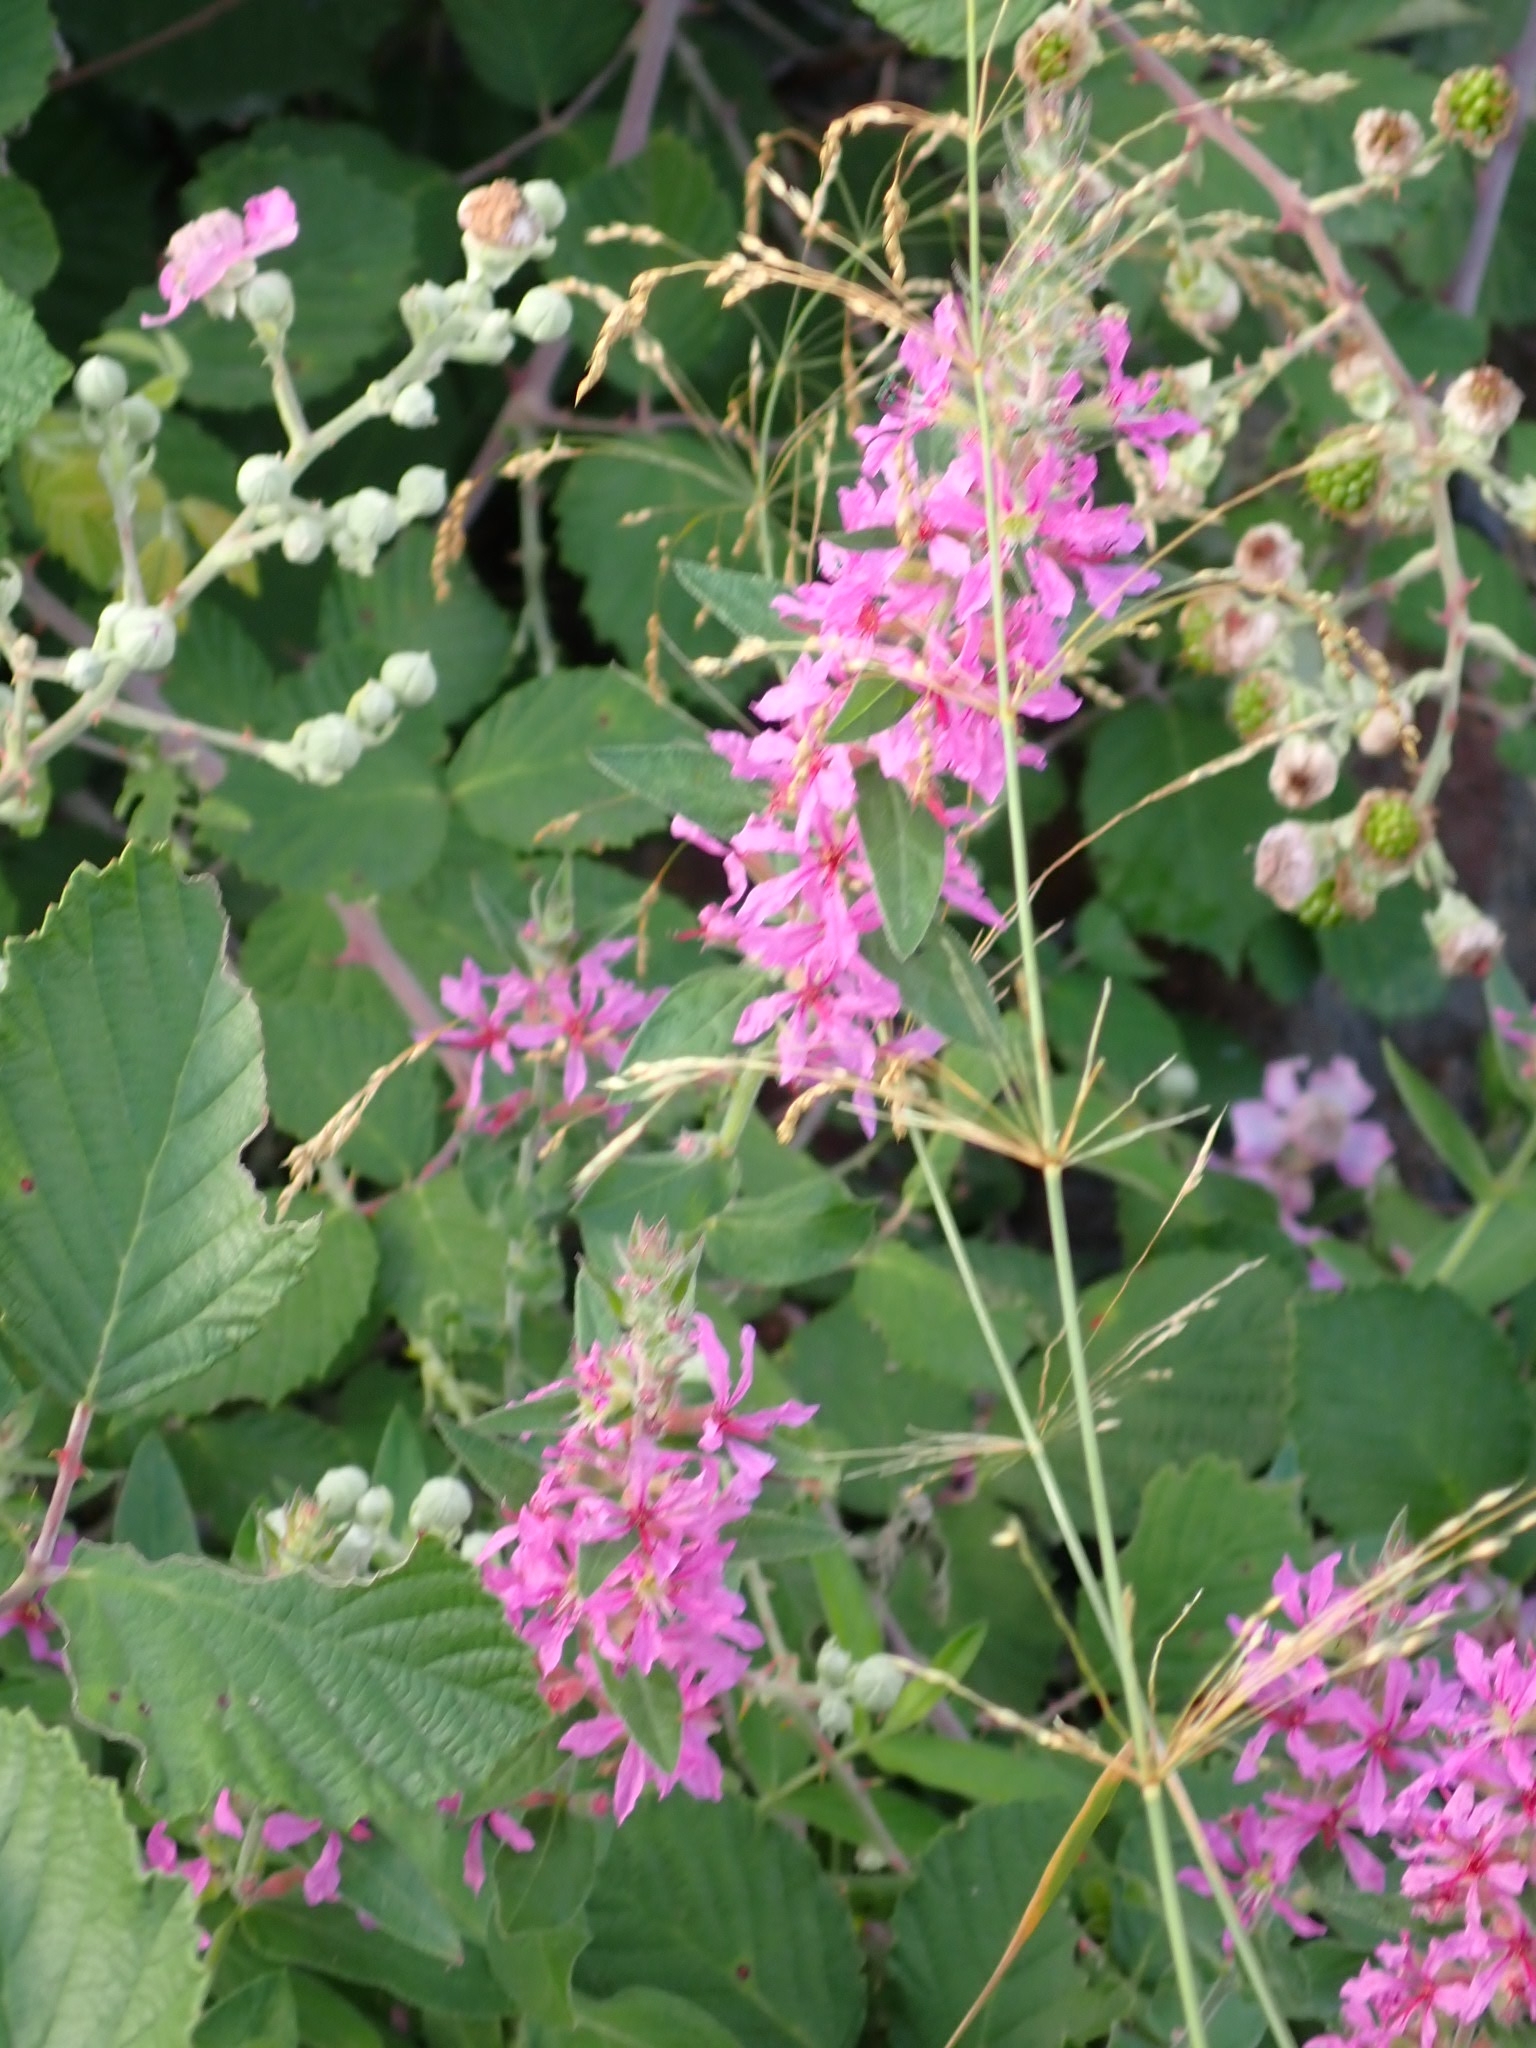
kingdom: Plantae
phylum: Tracheophyta
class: Magnoliopsida
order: Myrtales
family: Lythraceae
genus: Lythrum
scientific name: Lythrum salicaria
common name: Purple loosestrife
